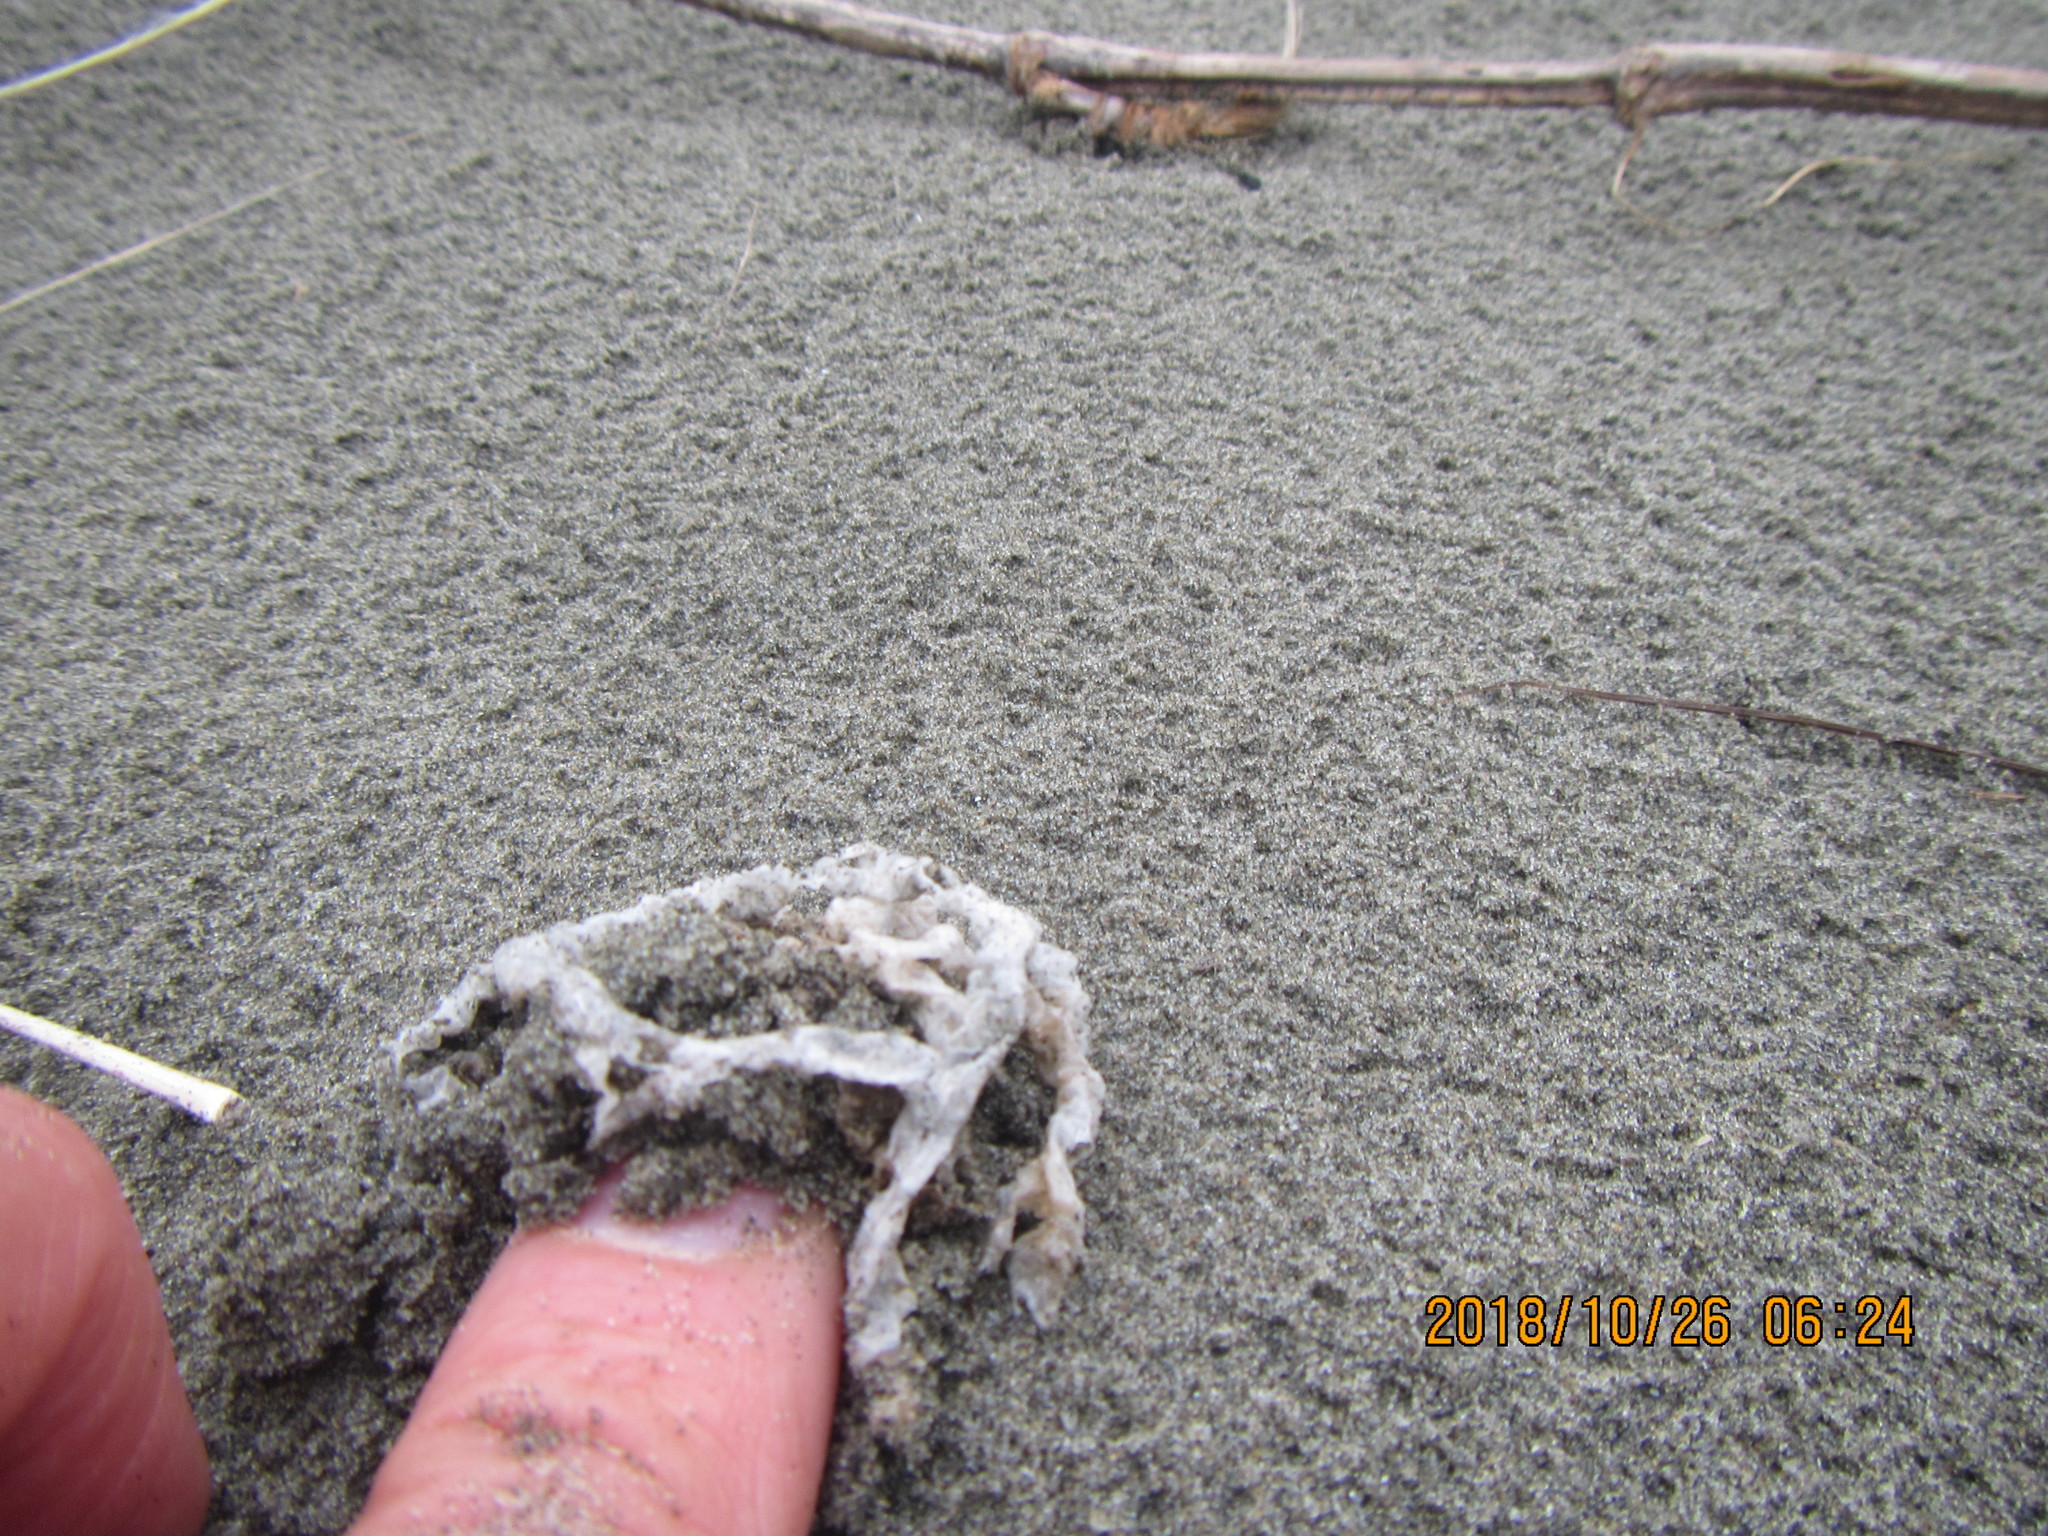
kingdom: Fungi
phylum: Basidiomycota
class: Agaricomycetes
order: Phallales
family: Phallaceae
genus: Ileodictyon
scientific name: Ileodictyon cibarium
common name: Basket fungus
